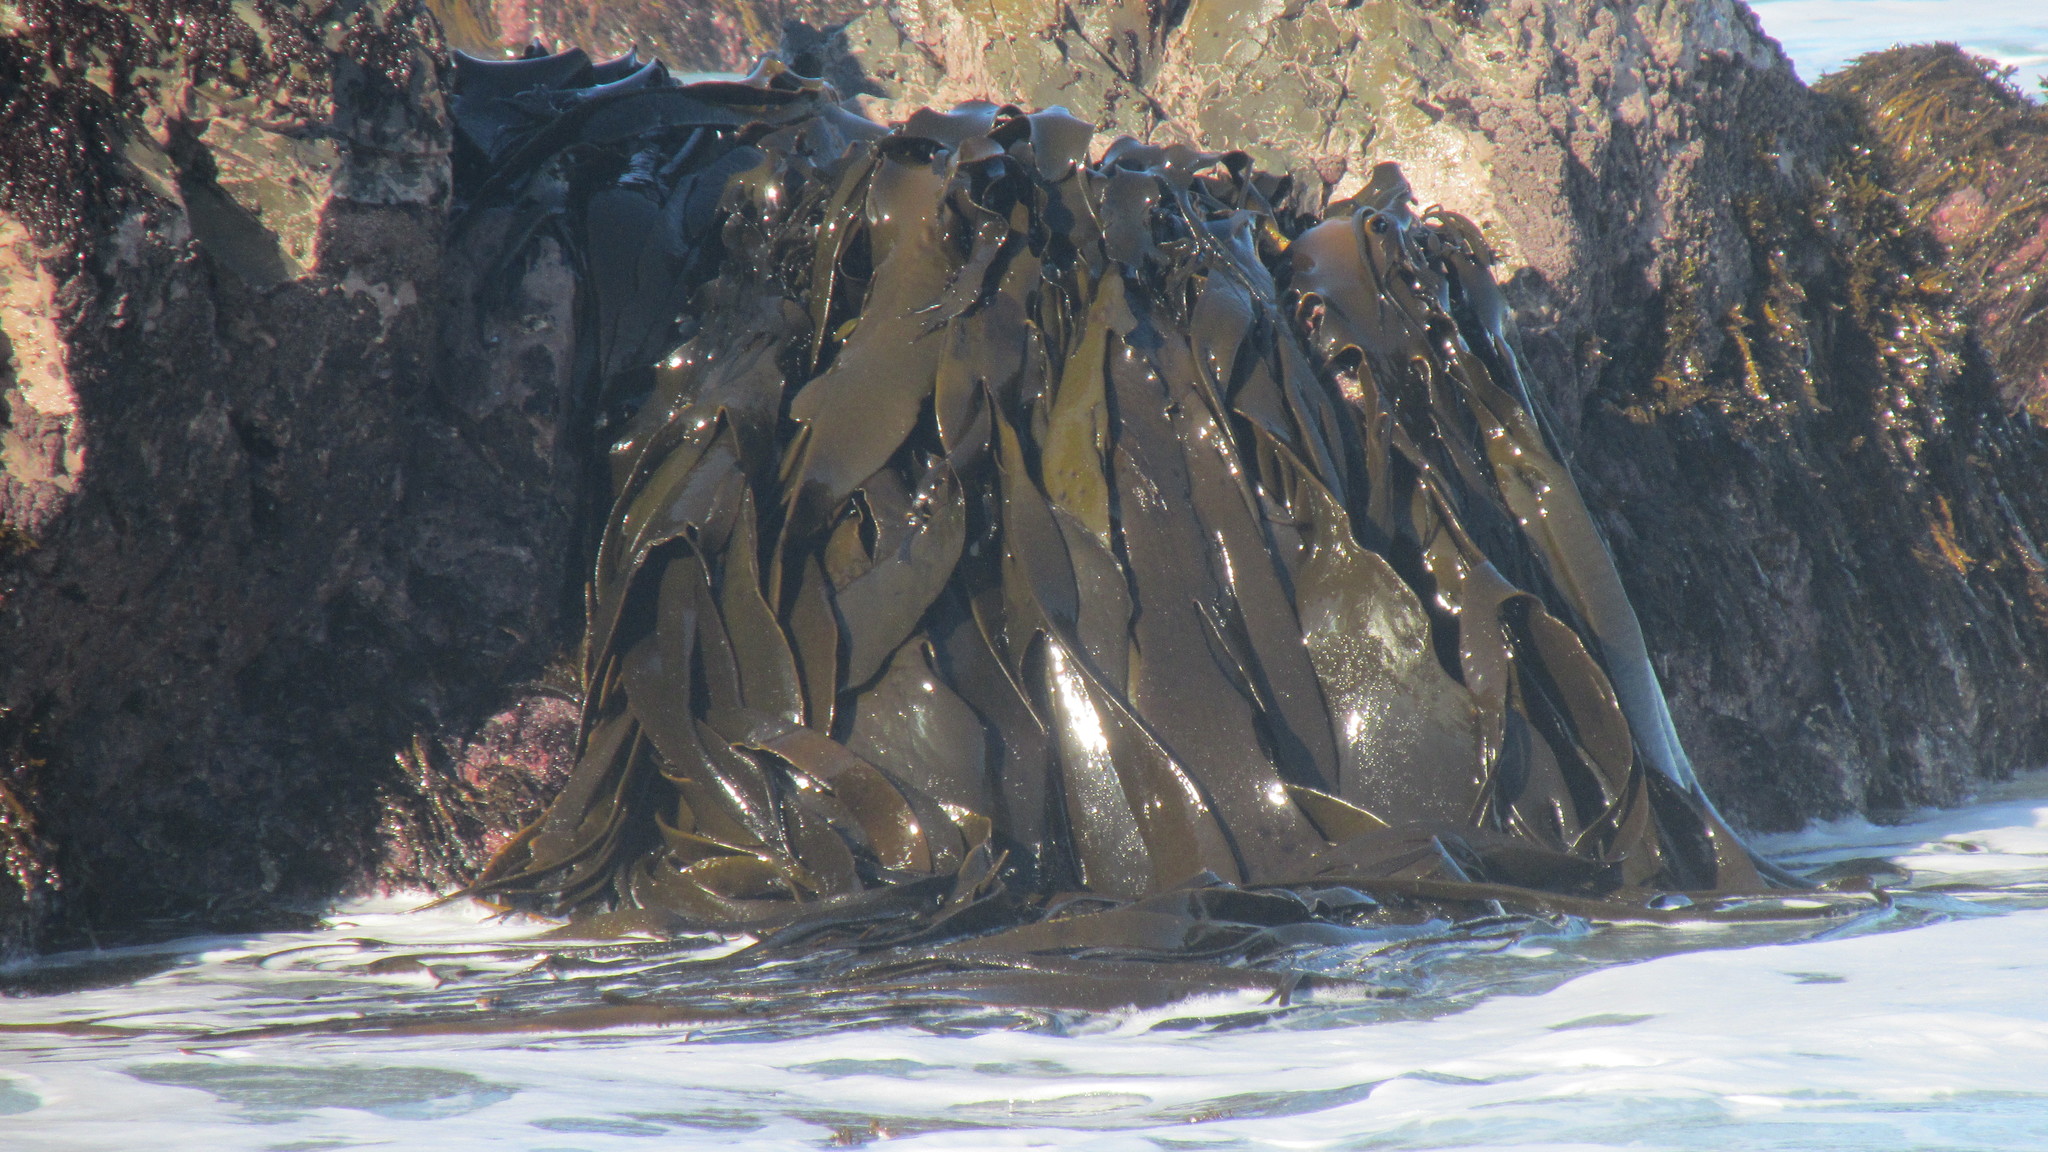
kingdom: Chromista
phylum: Ochrophyta
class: Phaeophyceae
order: Fucales
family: Durvillaeaceae
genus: Durvillaea
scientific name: Durvillaea antarctica
